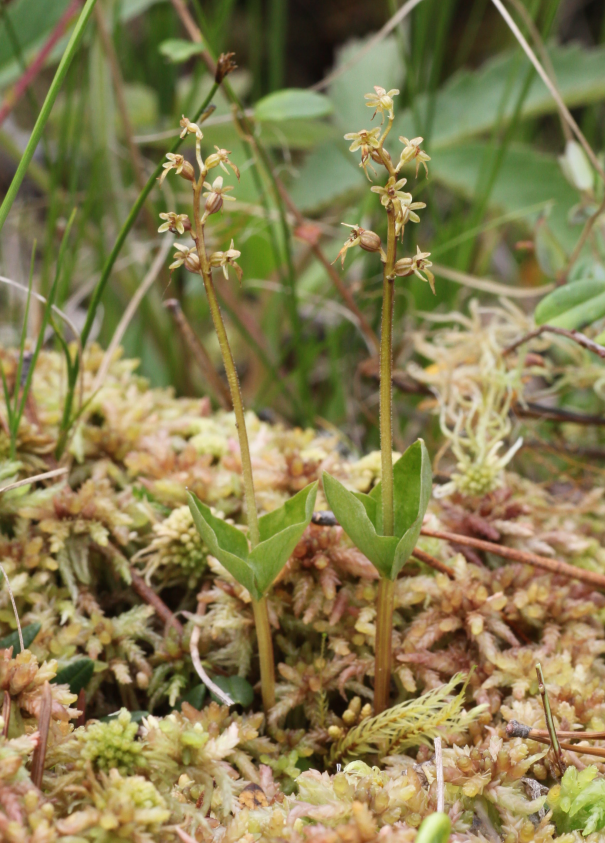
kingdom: Plantae
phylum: Tracheophyta
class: Liliopsida
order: Asparagales
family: Orchidaceae
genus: Neottia
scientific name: Neottia cordata
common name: Lesser twayblade
